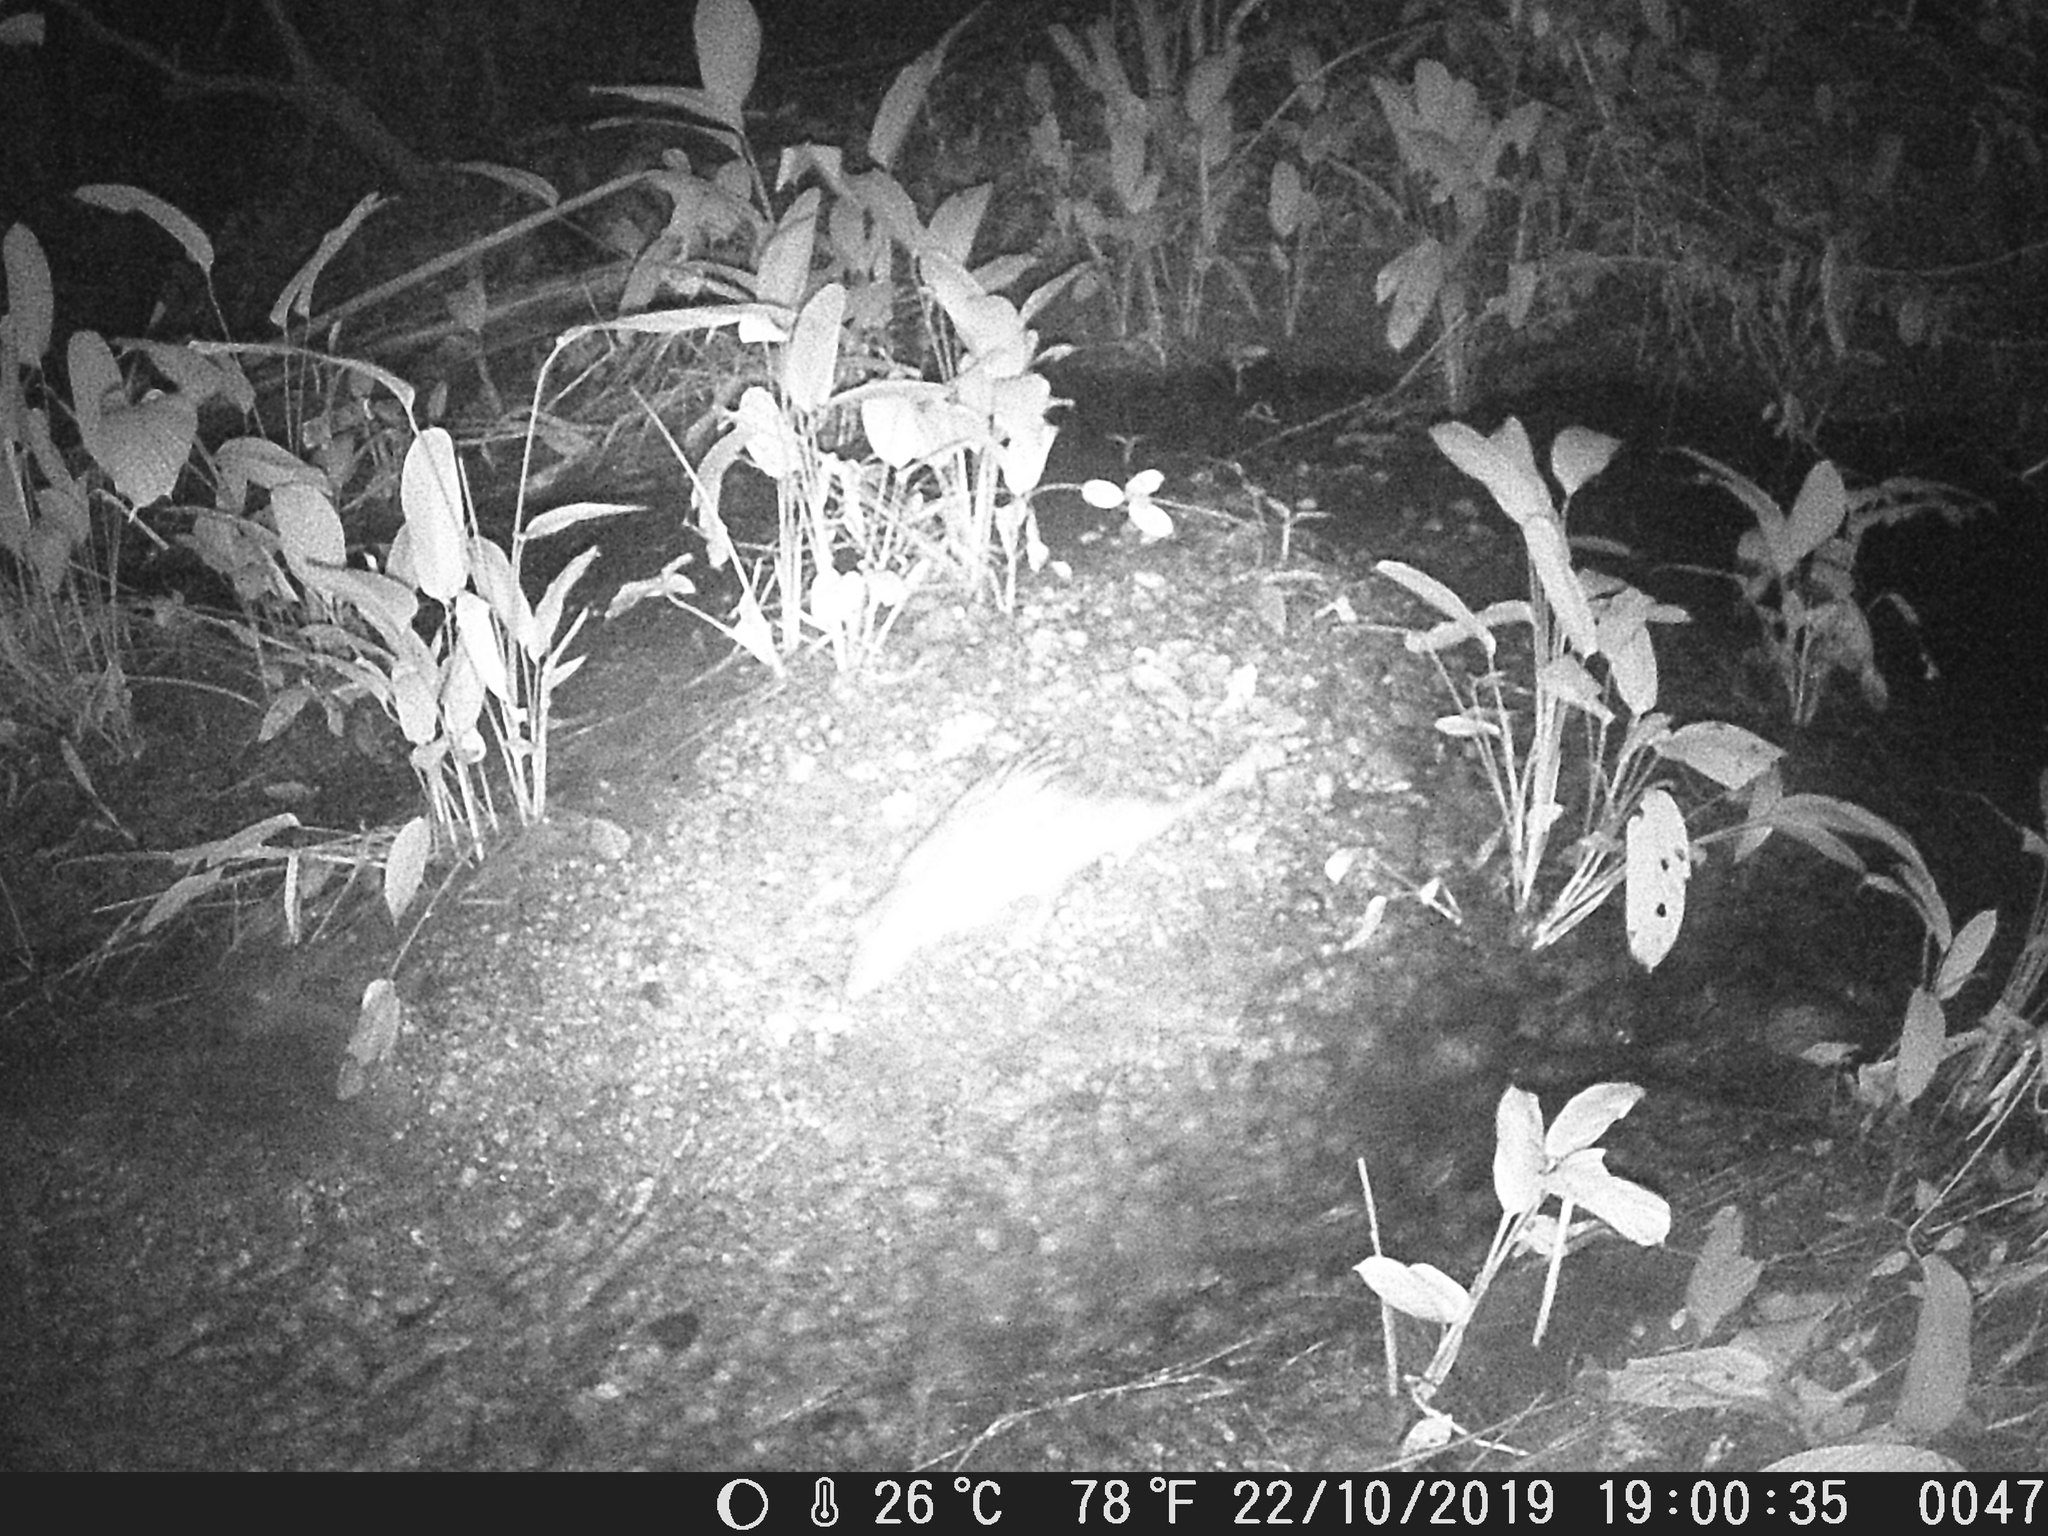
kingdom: Animalia
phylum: Chordata
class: Mammalia
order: Rodentia
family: Hystricidae
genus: Atherurus
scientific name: Atherurus africanus
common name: African brush-tailed porcupine
